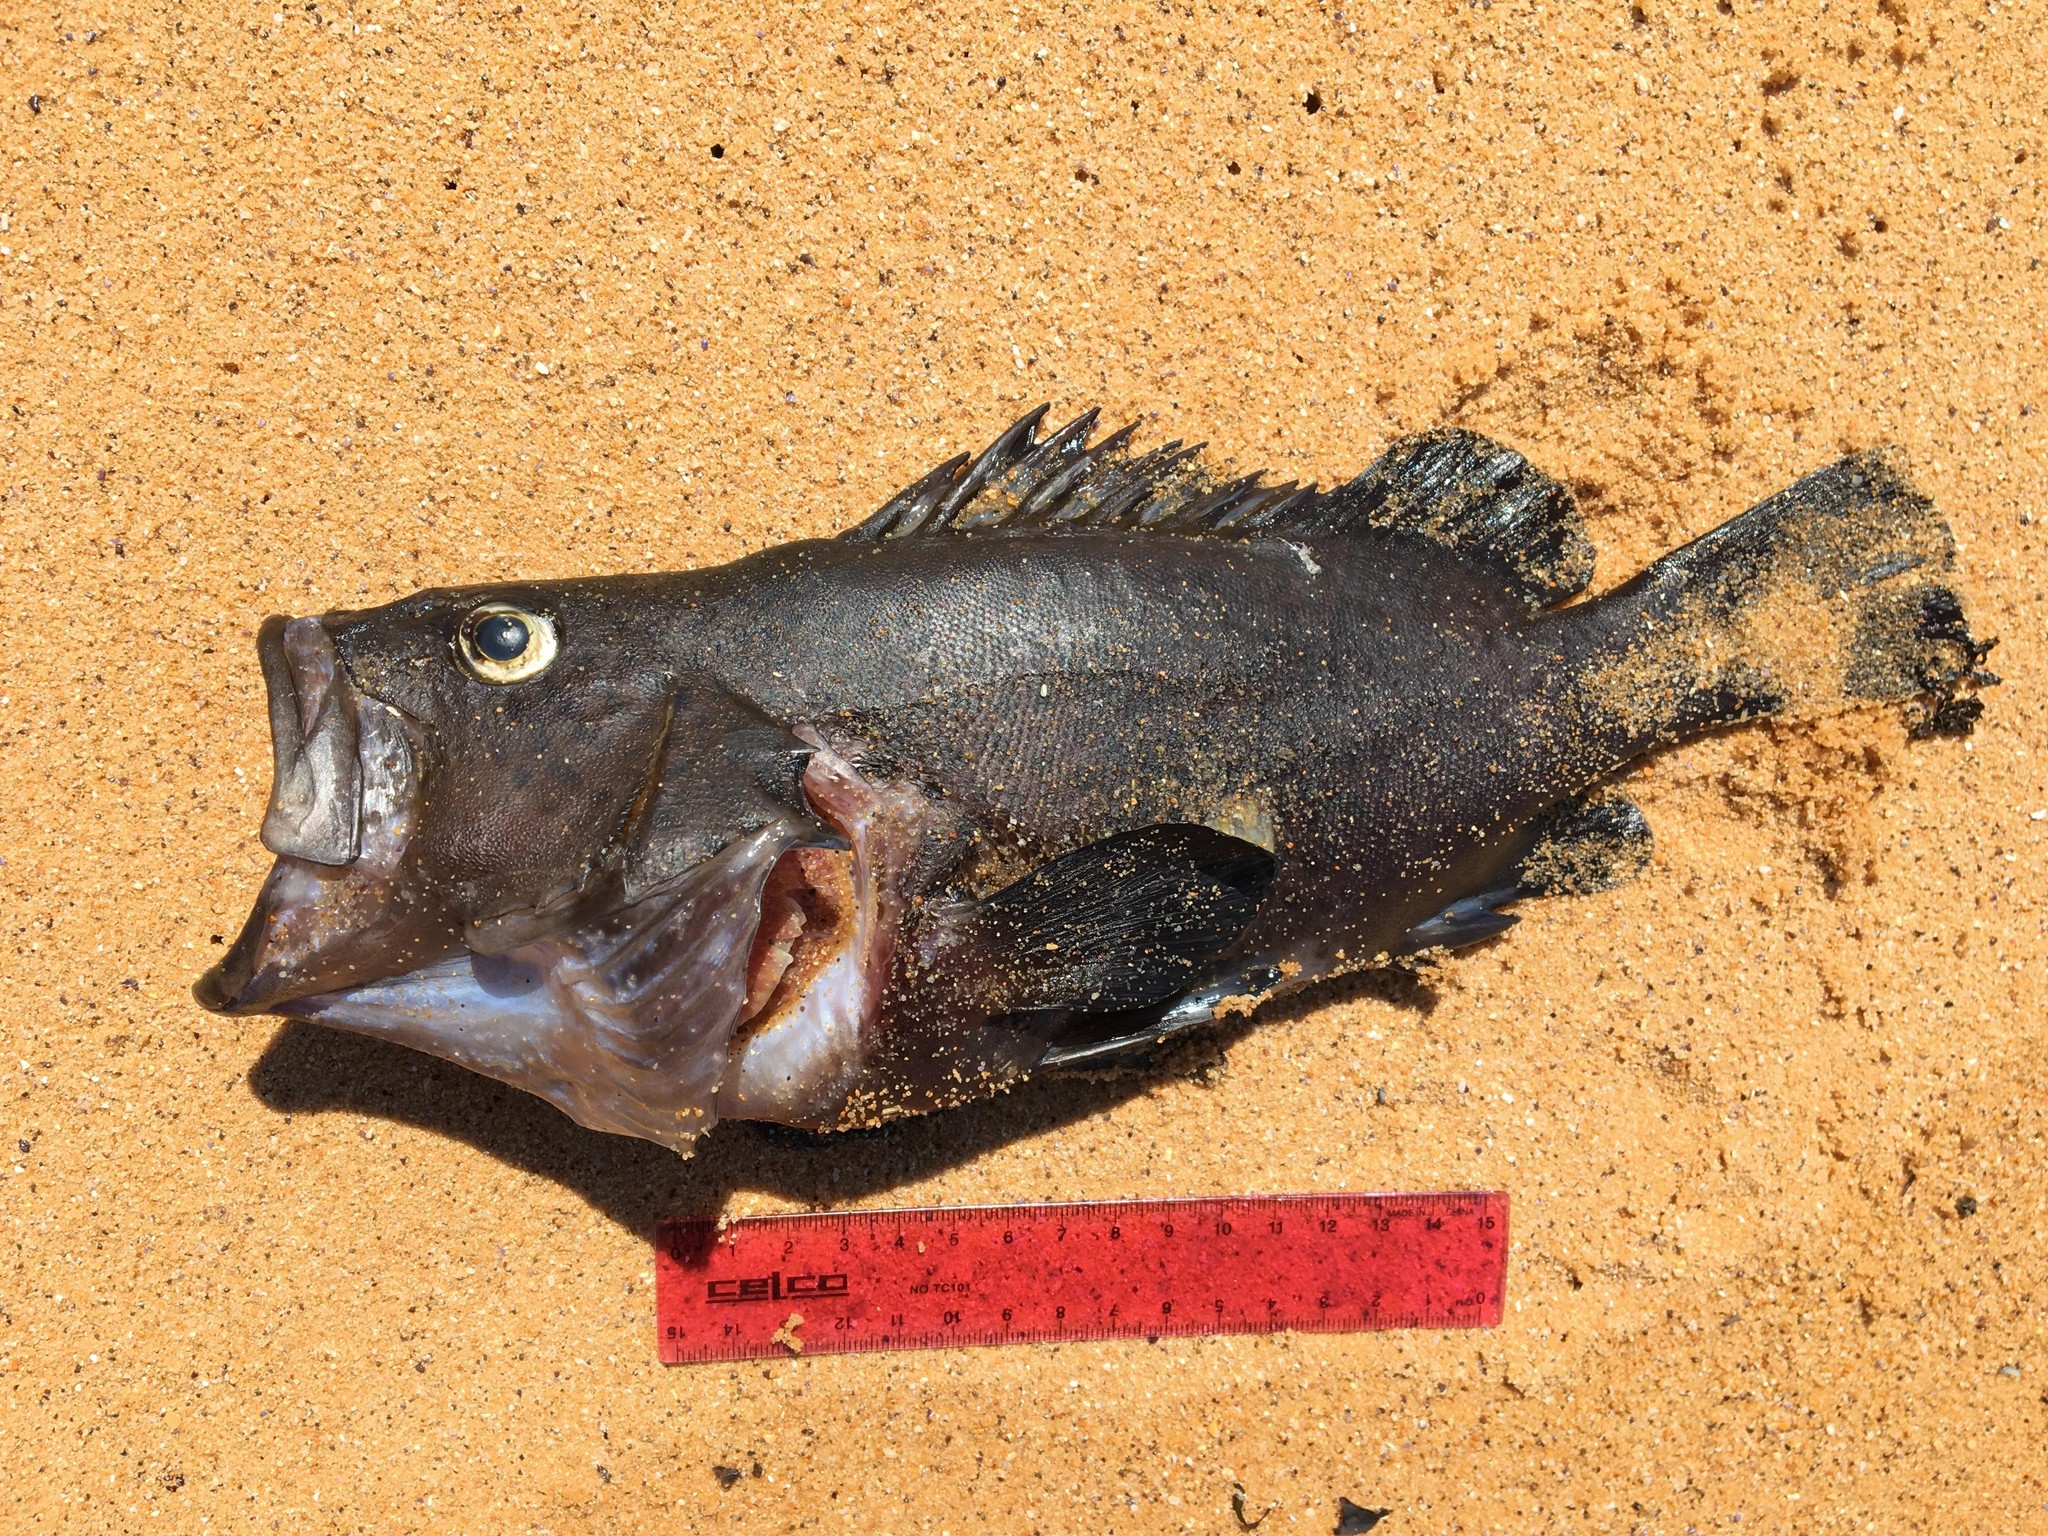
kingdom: Animalia
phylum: Chordata
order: Perciformes
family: Serranidae
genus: Acanthistius
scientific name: Acanthistius ocellatus
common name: Eastern wirrah
